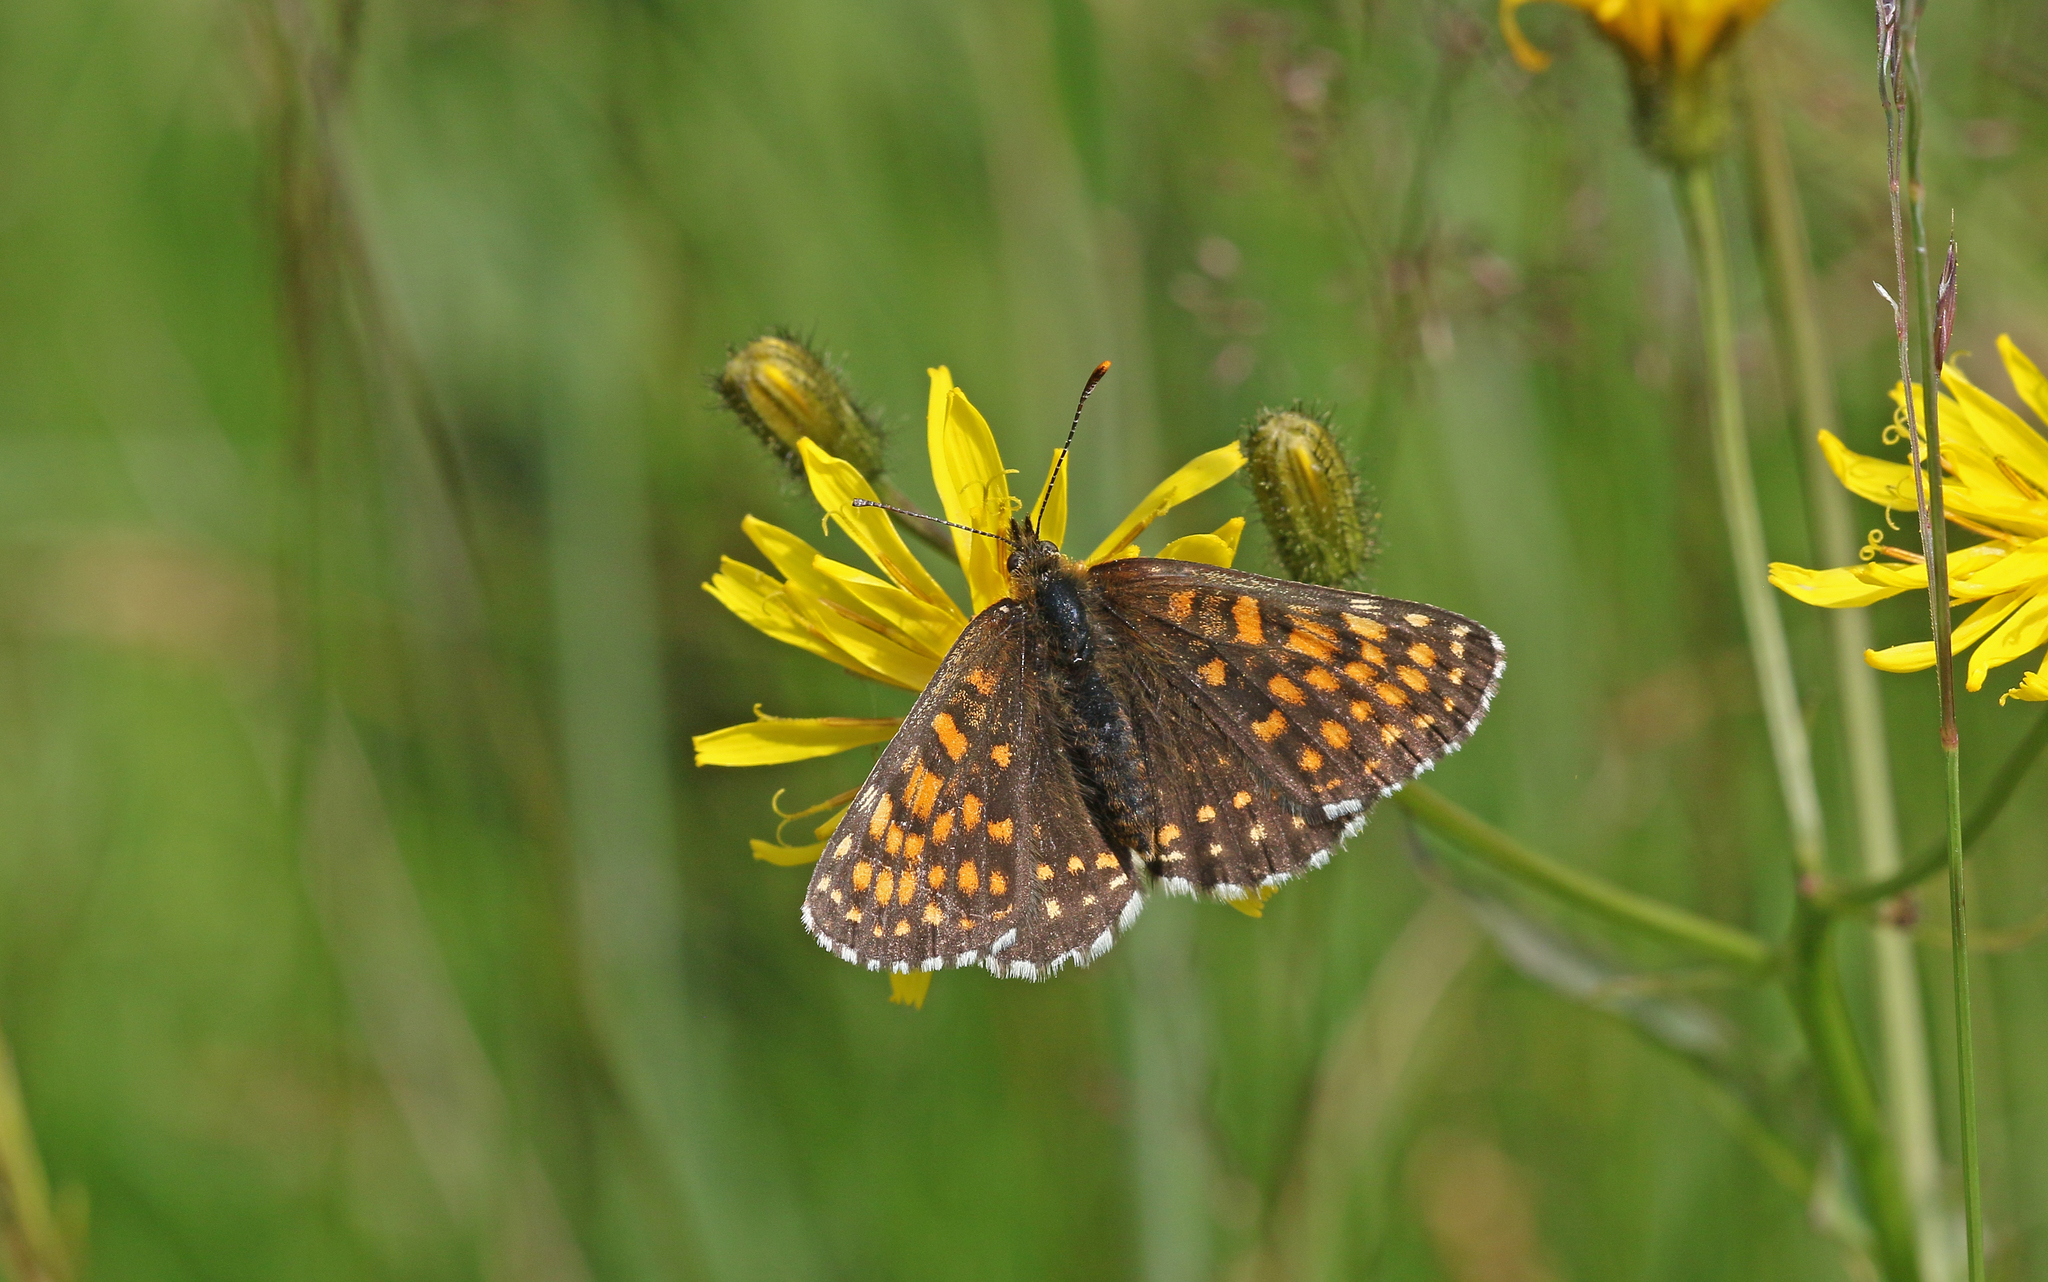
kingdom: Animalia
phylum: Arthropoda
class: Insecta
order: Lepidoptera
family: Nymphalidae
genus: Melitaea
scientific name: Melitaea diamina
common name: False heath fritillary
